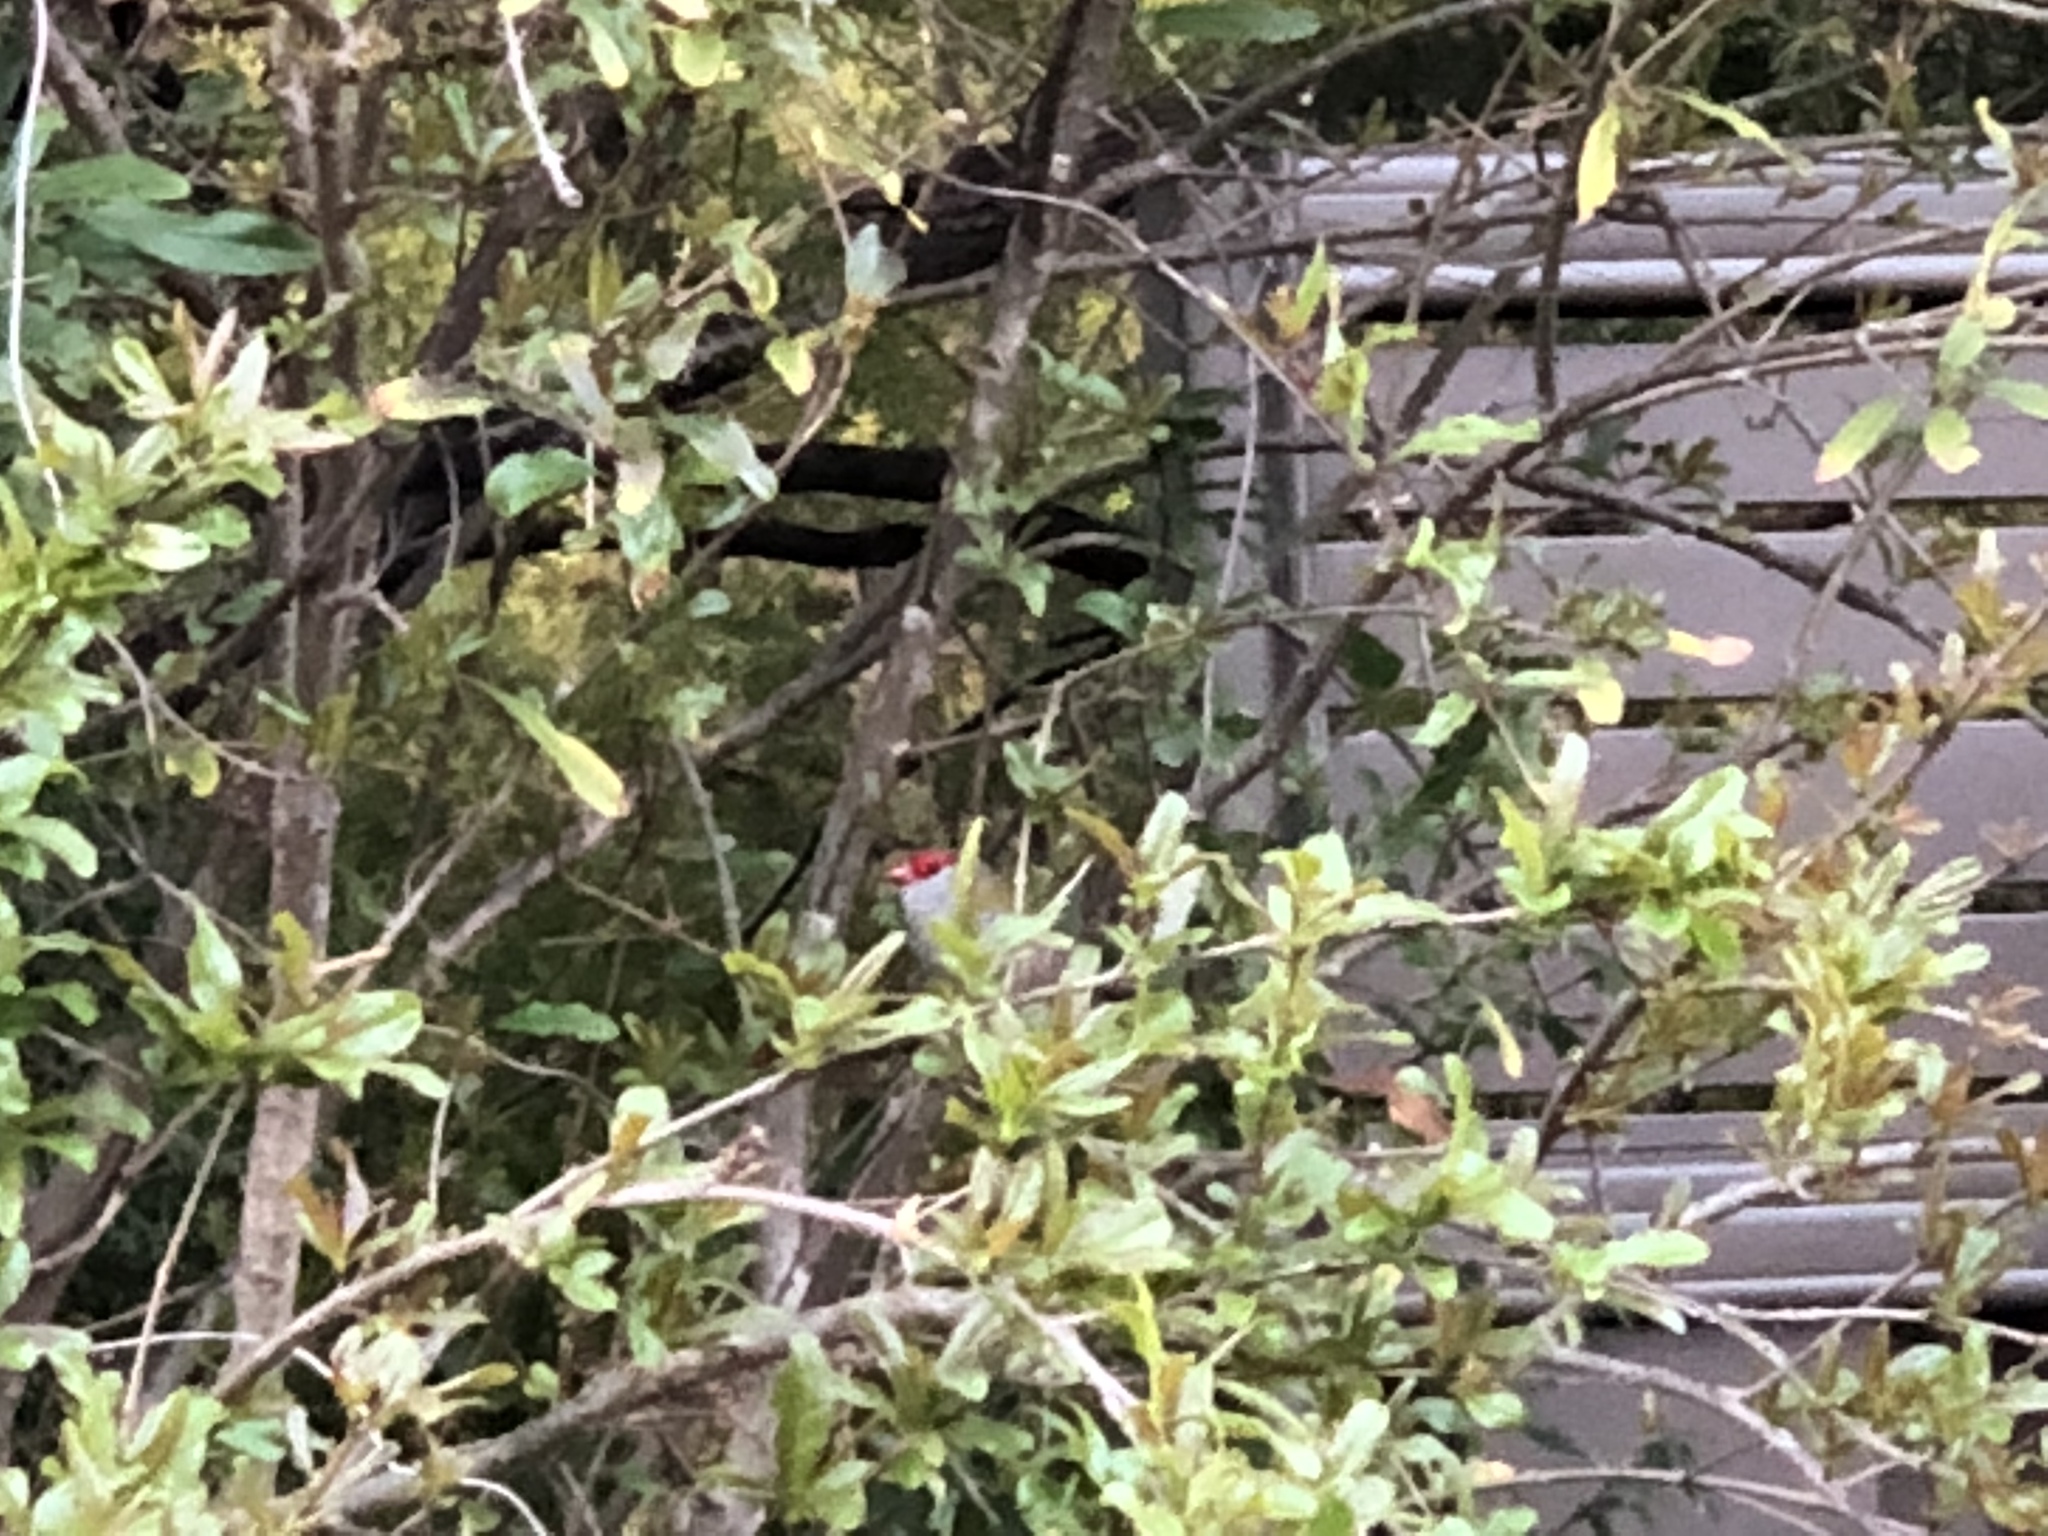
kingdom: Animalia
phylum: Chordata
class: Aves
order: Passeriformes
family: Estrildidae
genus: Neochmia
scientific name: Neochmia temporalis
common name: Red-browed finch
